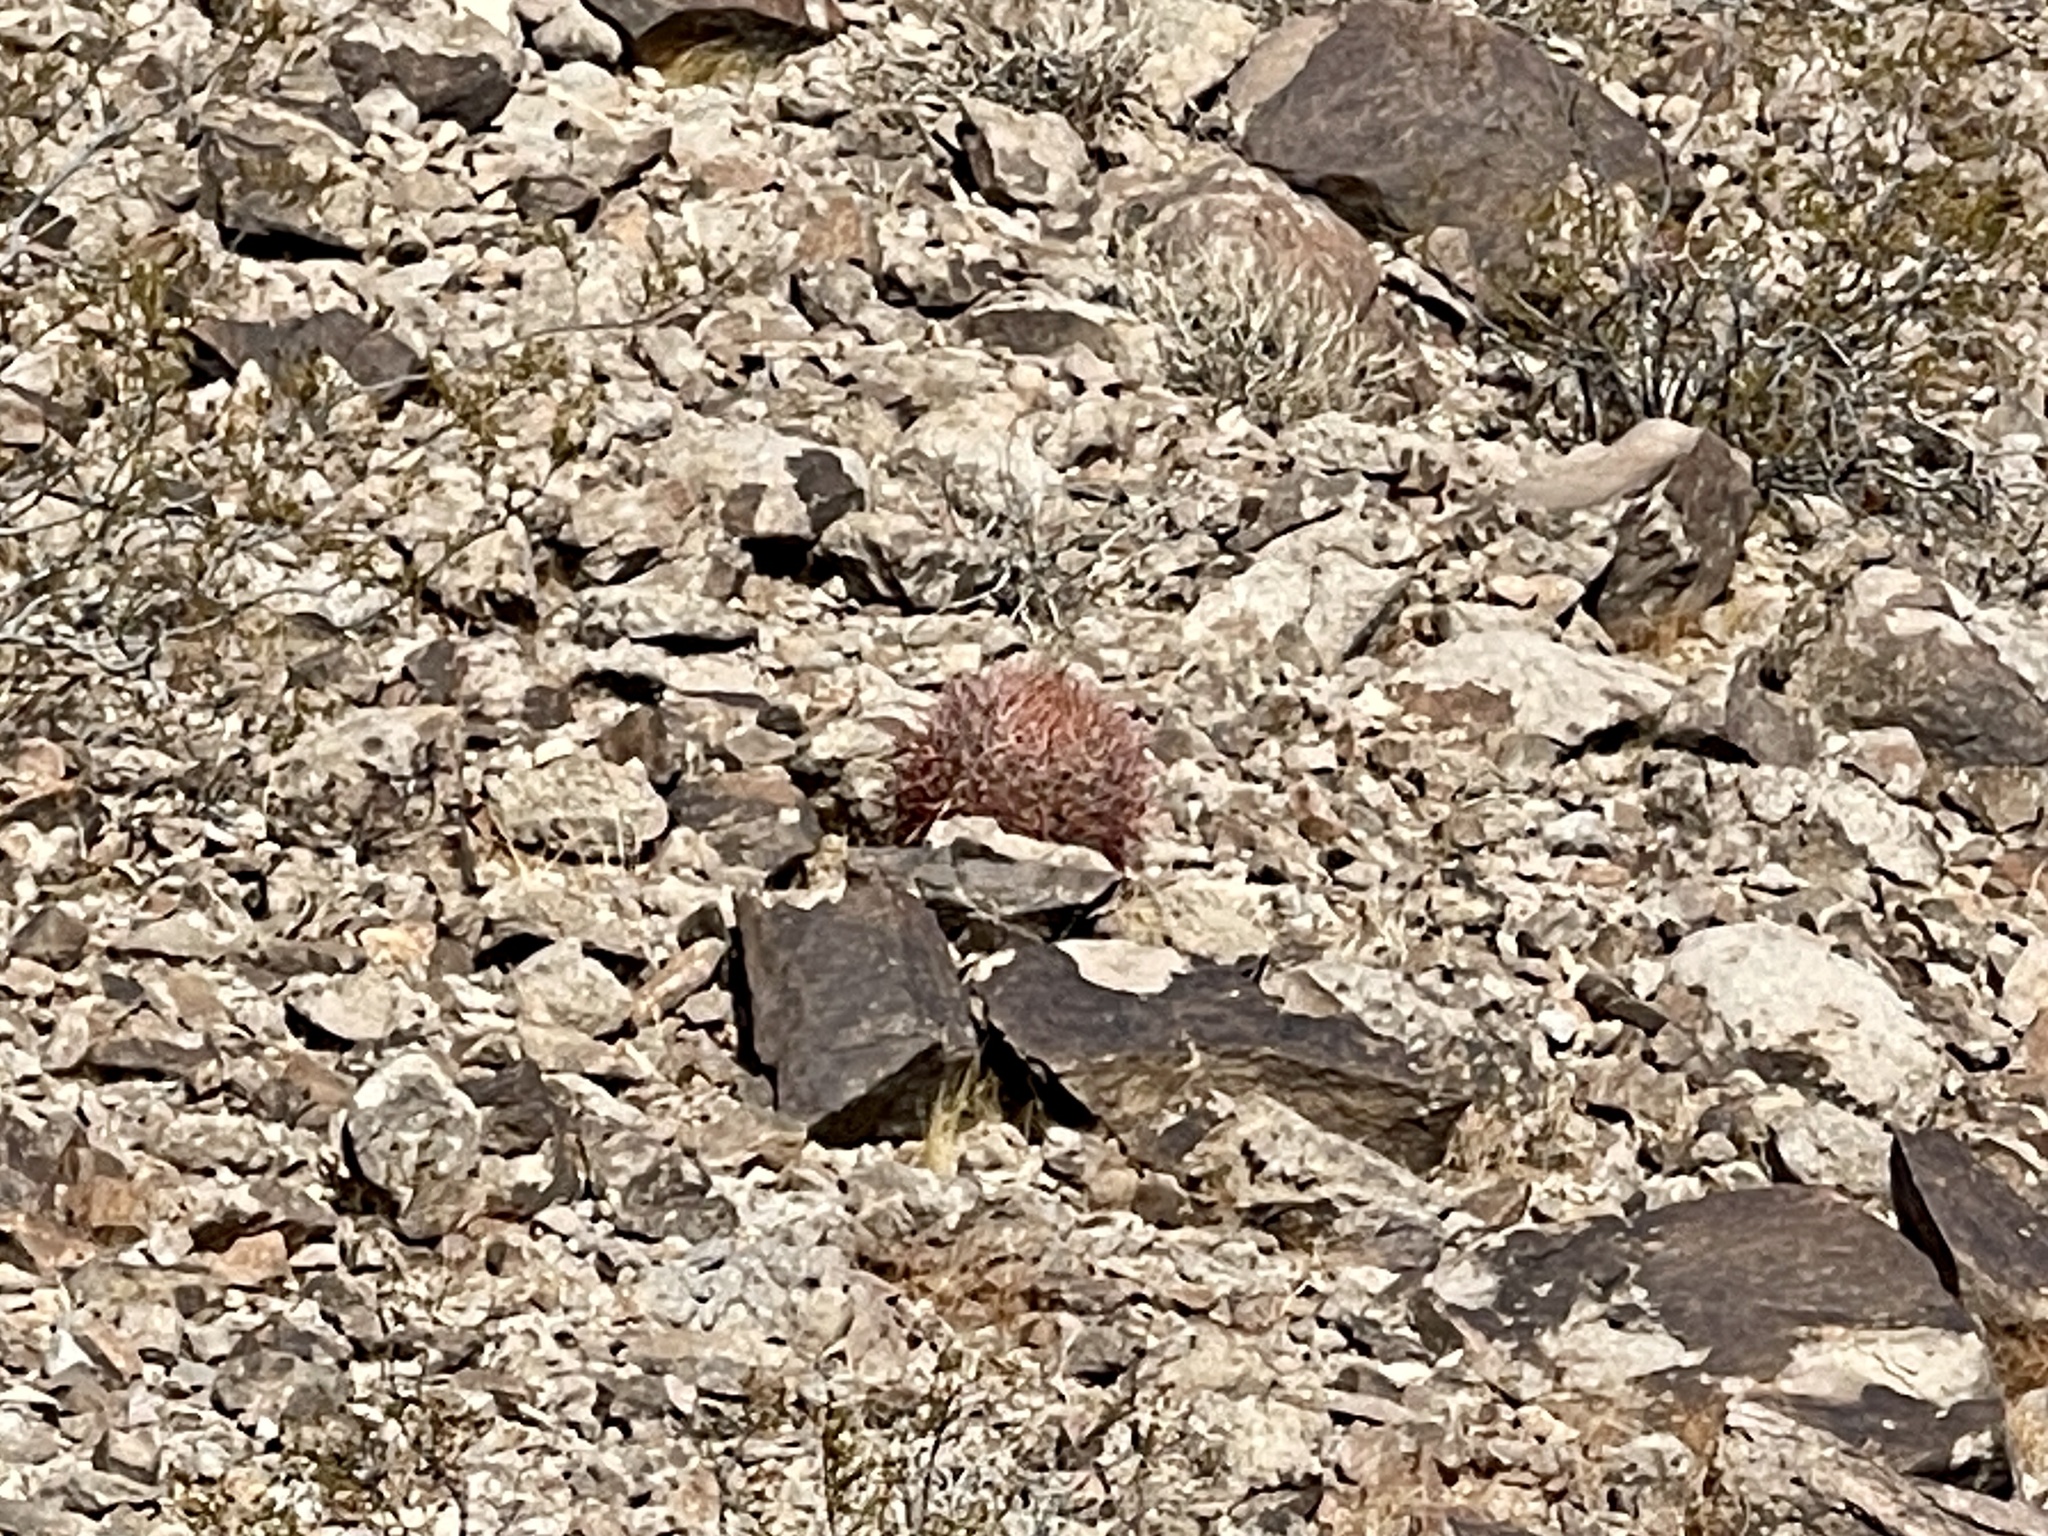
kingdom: Plantae
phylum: Tracheophyta
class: Magnoliopsida
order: Caryophyllales
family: Cactaceae
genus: Ferocactus
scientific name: Ferocactus cylindraceus
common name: California barrel cactus
